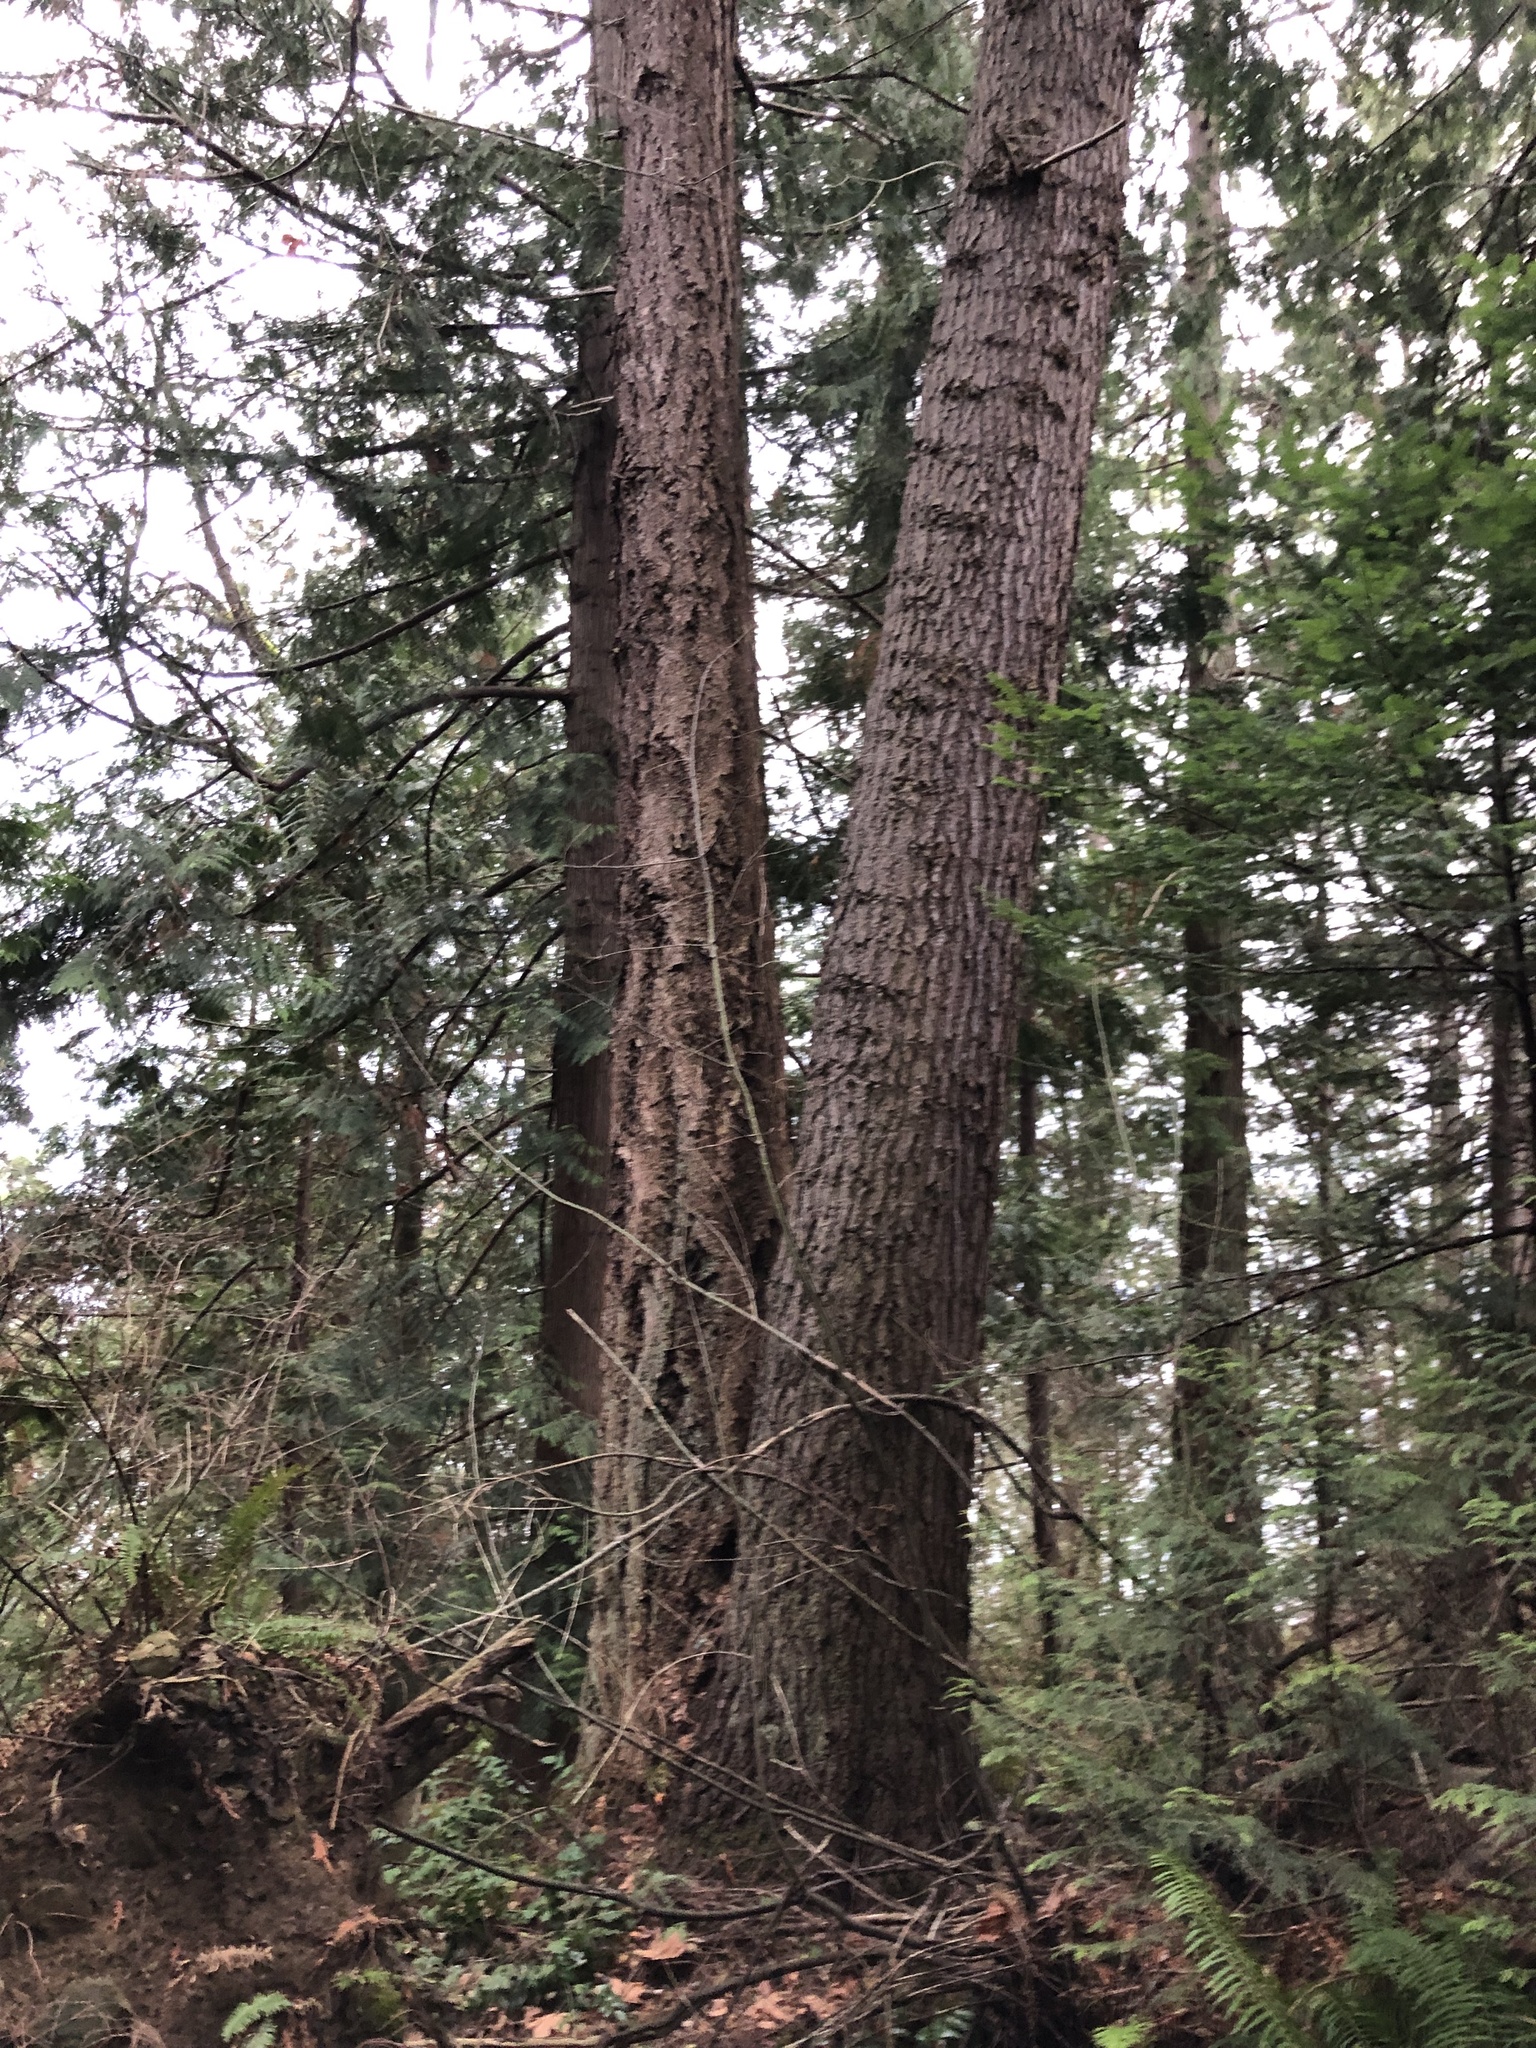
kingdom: Plantae
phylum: Tracheophyta
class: Pinopsida
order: Pinales
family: Pinaceae
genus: Pseudotsuga
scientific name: Pseudotsuga menziesii
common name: Douglas fir
